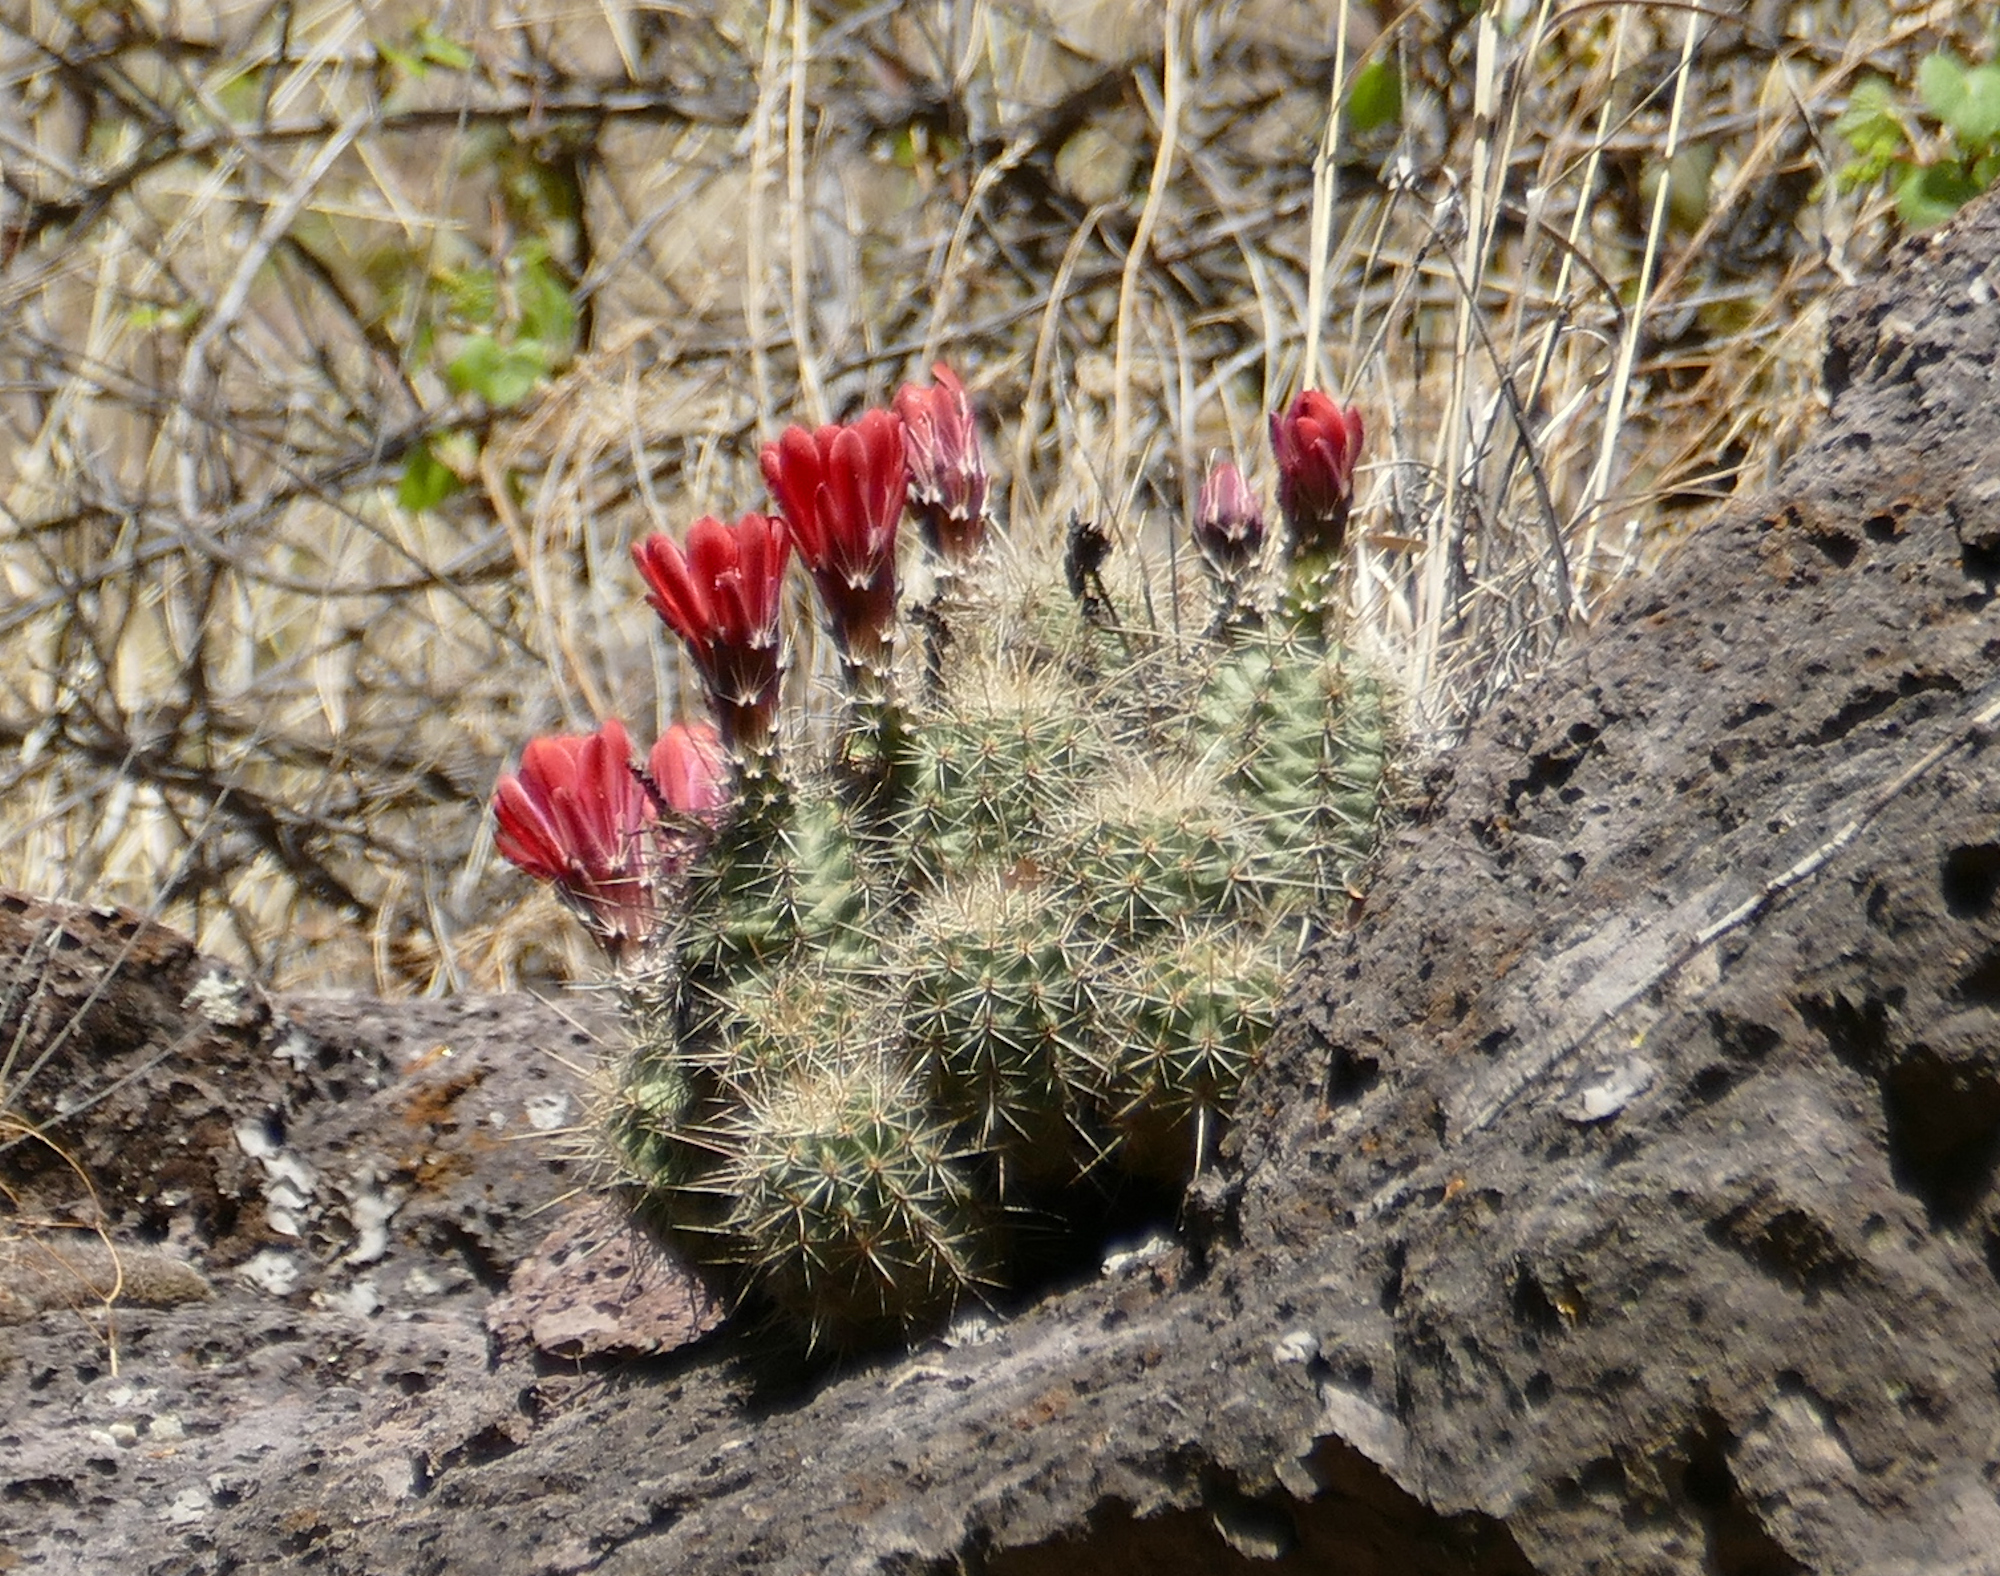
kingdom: Plantae
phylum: Tracheophyta
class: Magnoliopsida
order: Caryophyllales
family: Cactaceae
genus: Echinocereus
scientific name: Echinocereus coccineus
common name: Scarlet hedgehog cactus
